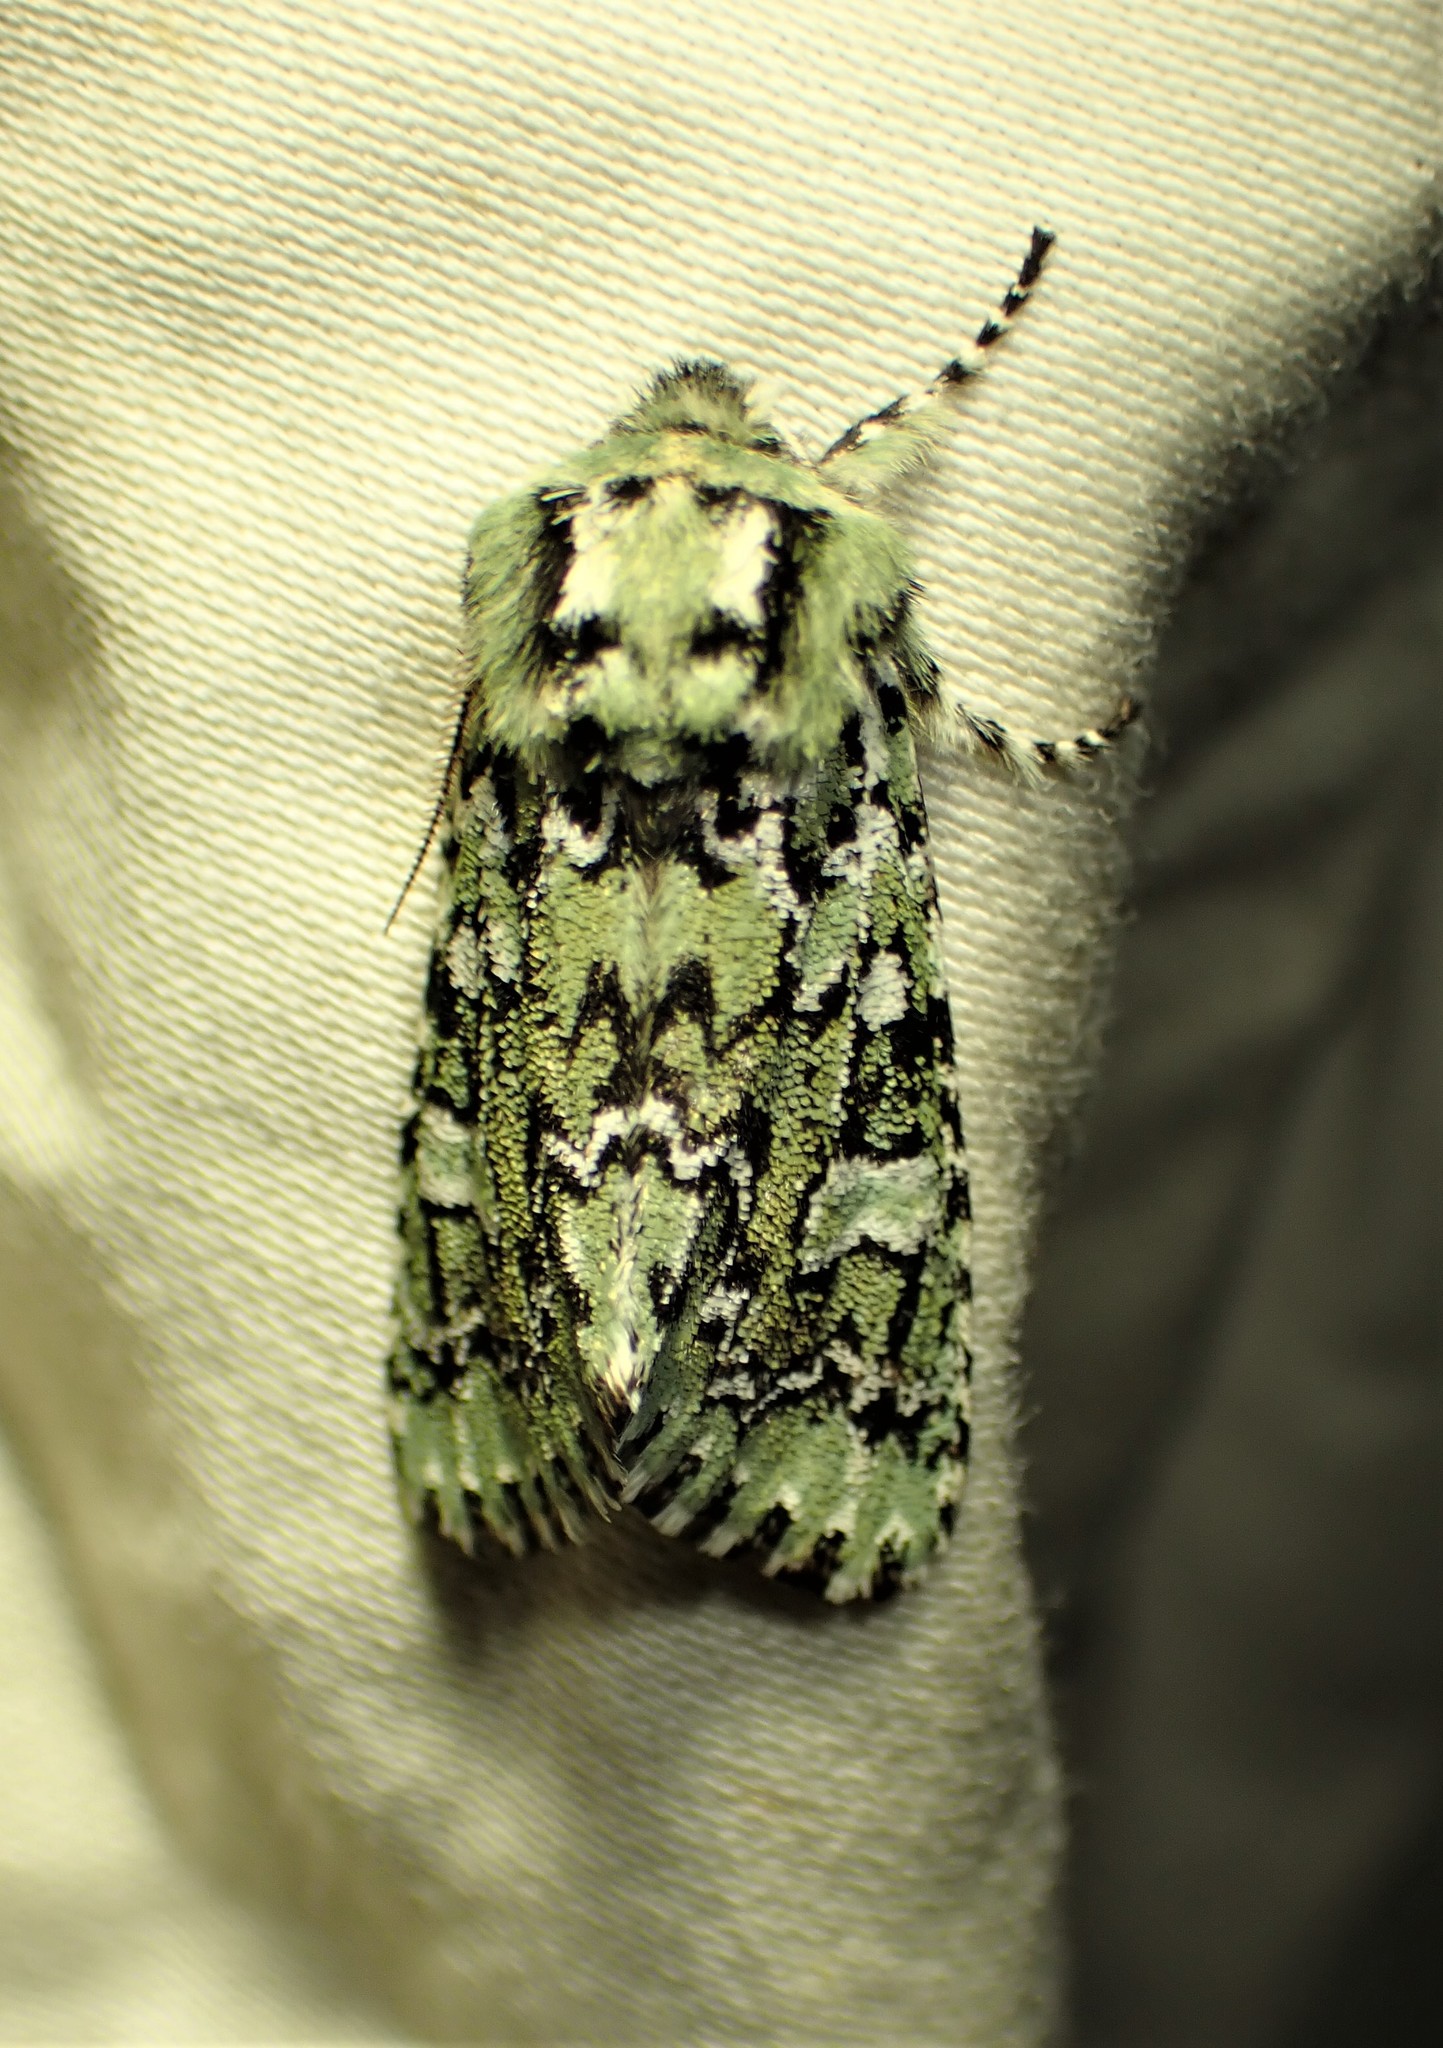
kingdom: Animalia
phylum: Arthropoda
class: Insecta
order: Lepidoptera
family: Noctuidae
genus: Feralia
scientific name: Feralia jocosa
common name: Joker
